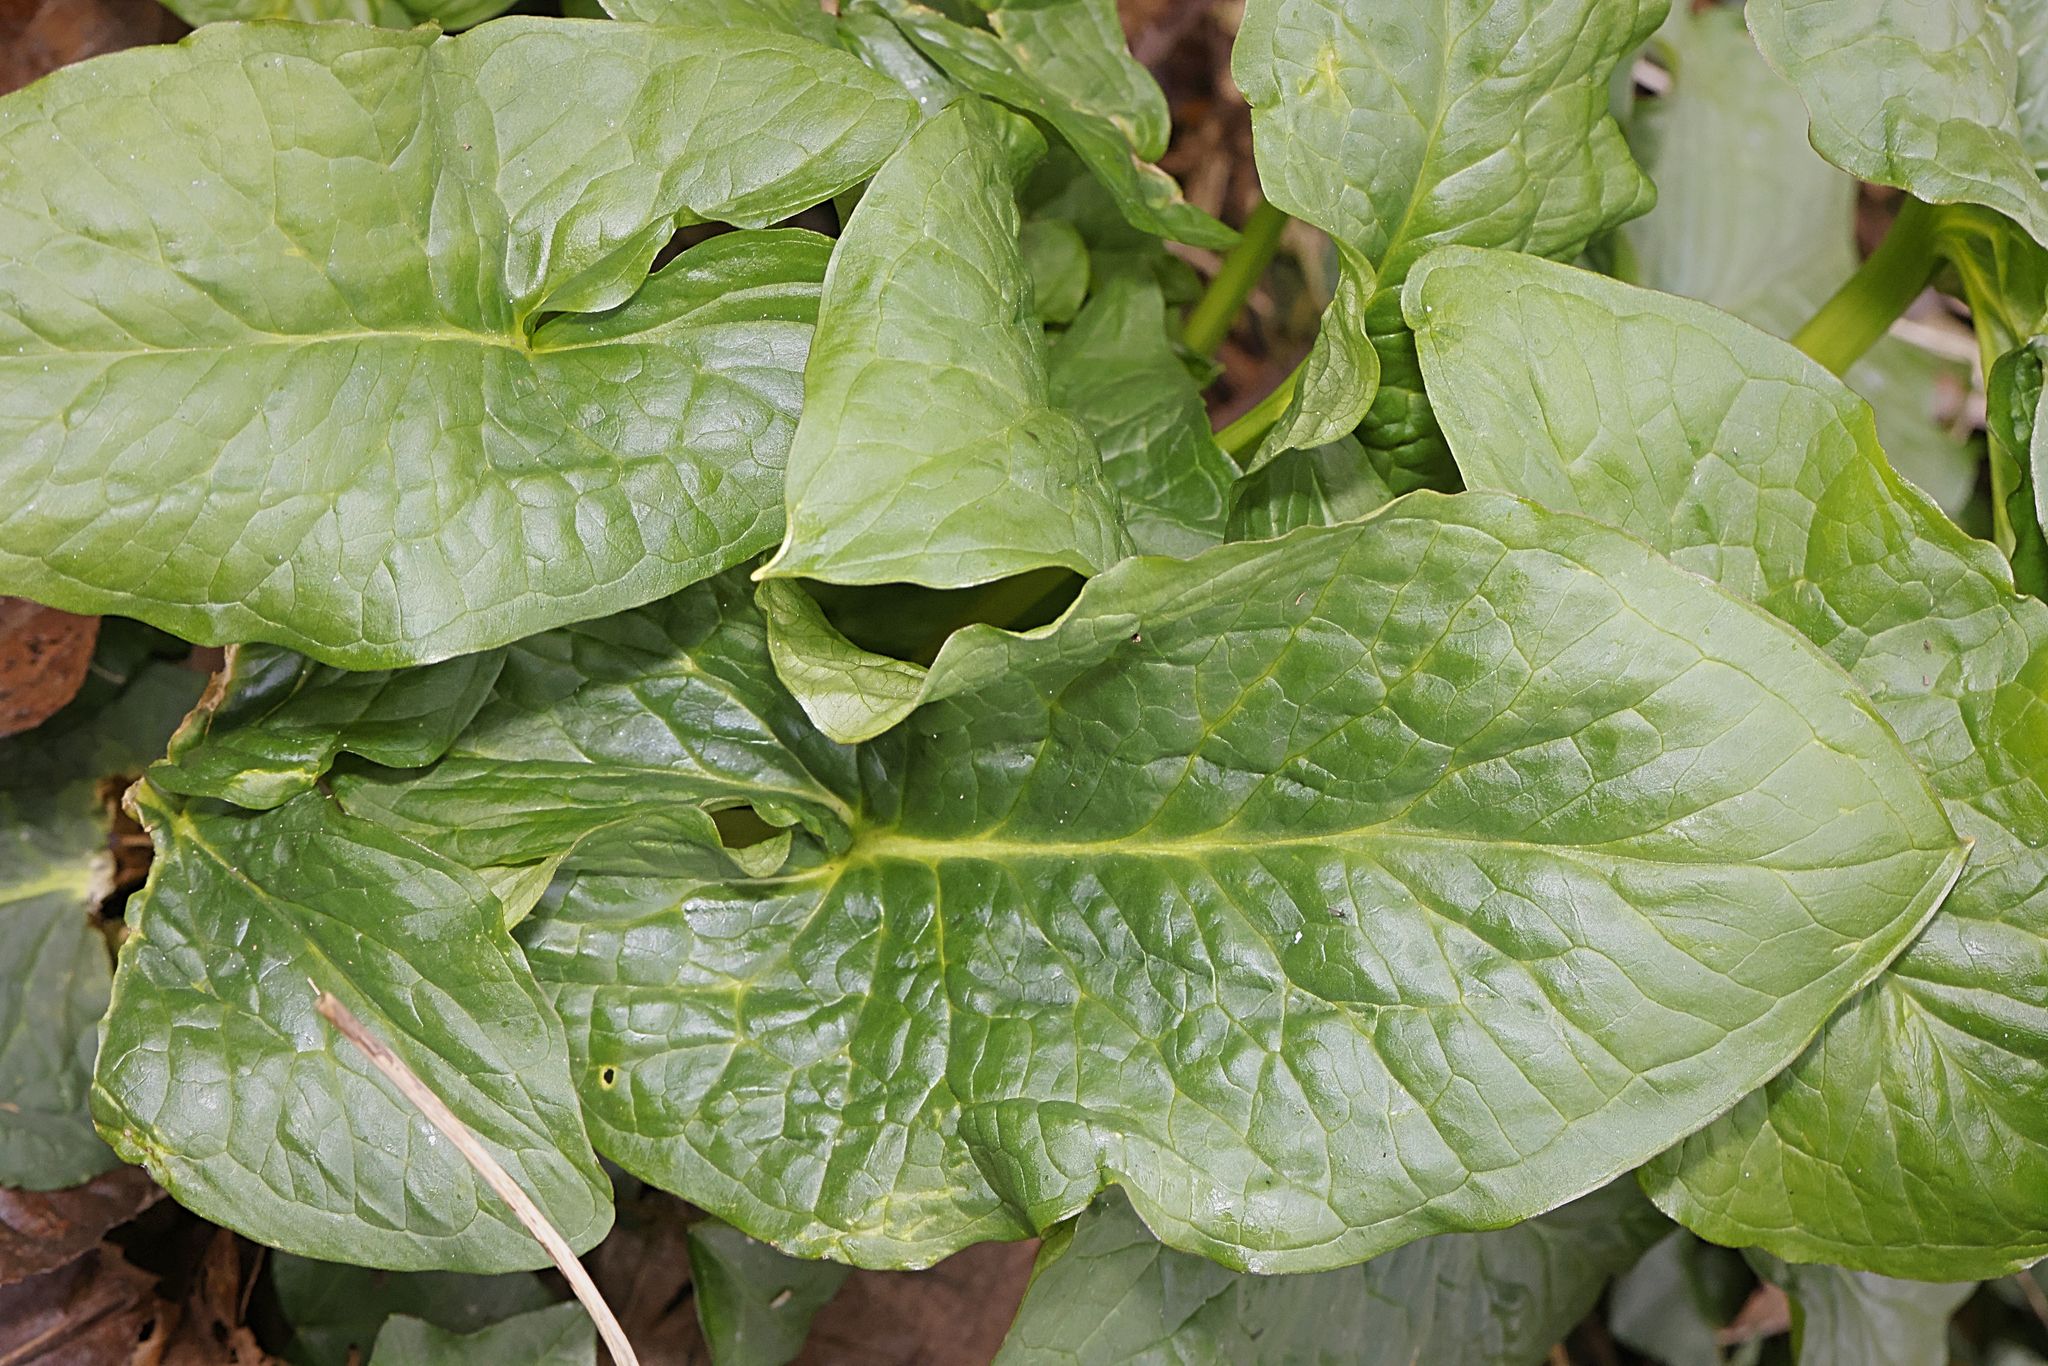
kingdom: Plantae
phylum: Tracheophyta
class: Liliopsida
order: Alismatales
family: Araceae
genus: Arum
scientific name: Arum maculatum
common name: Lords-and-ladies
